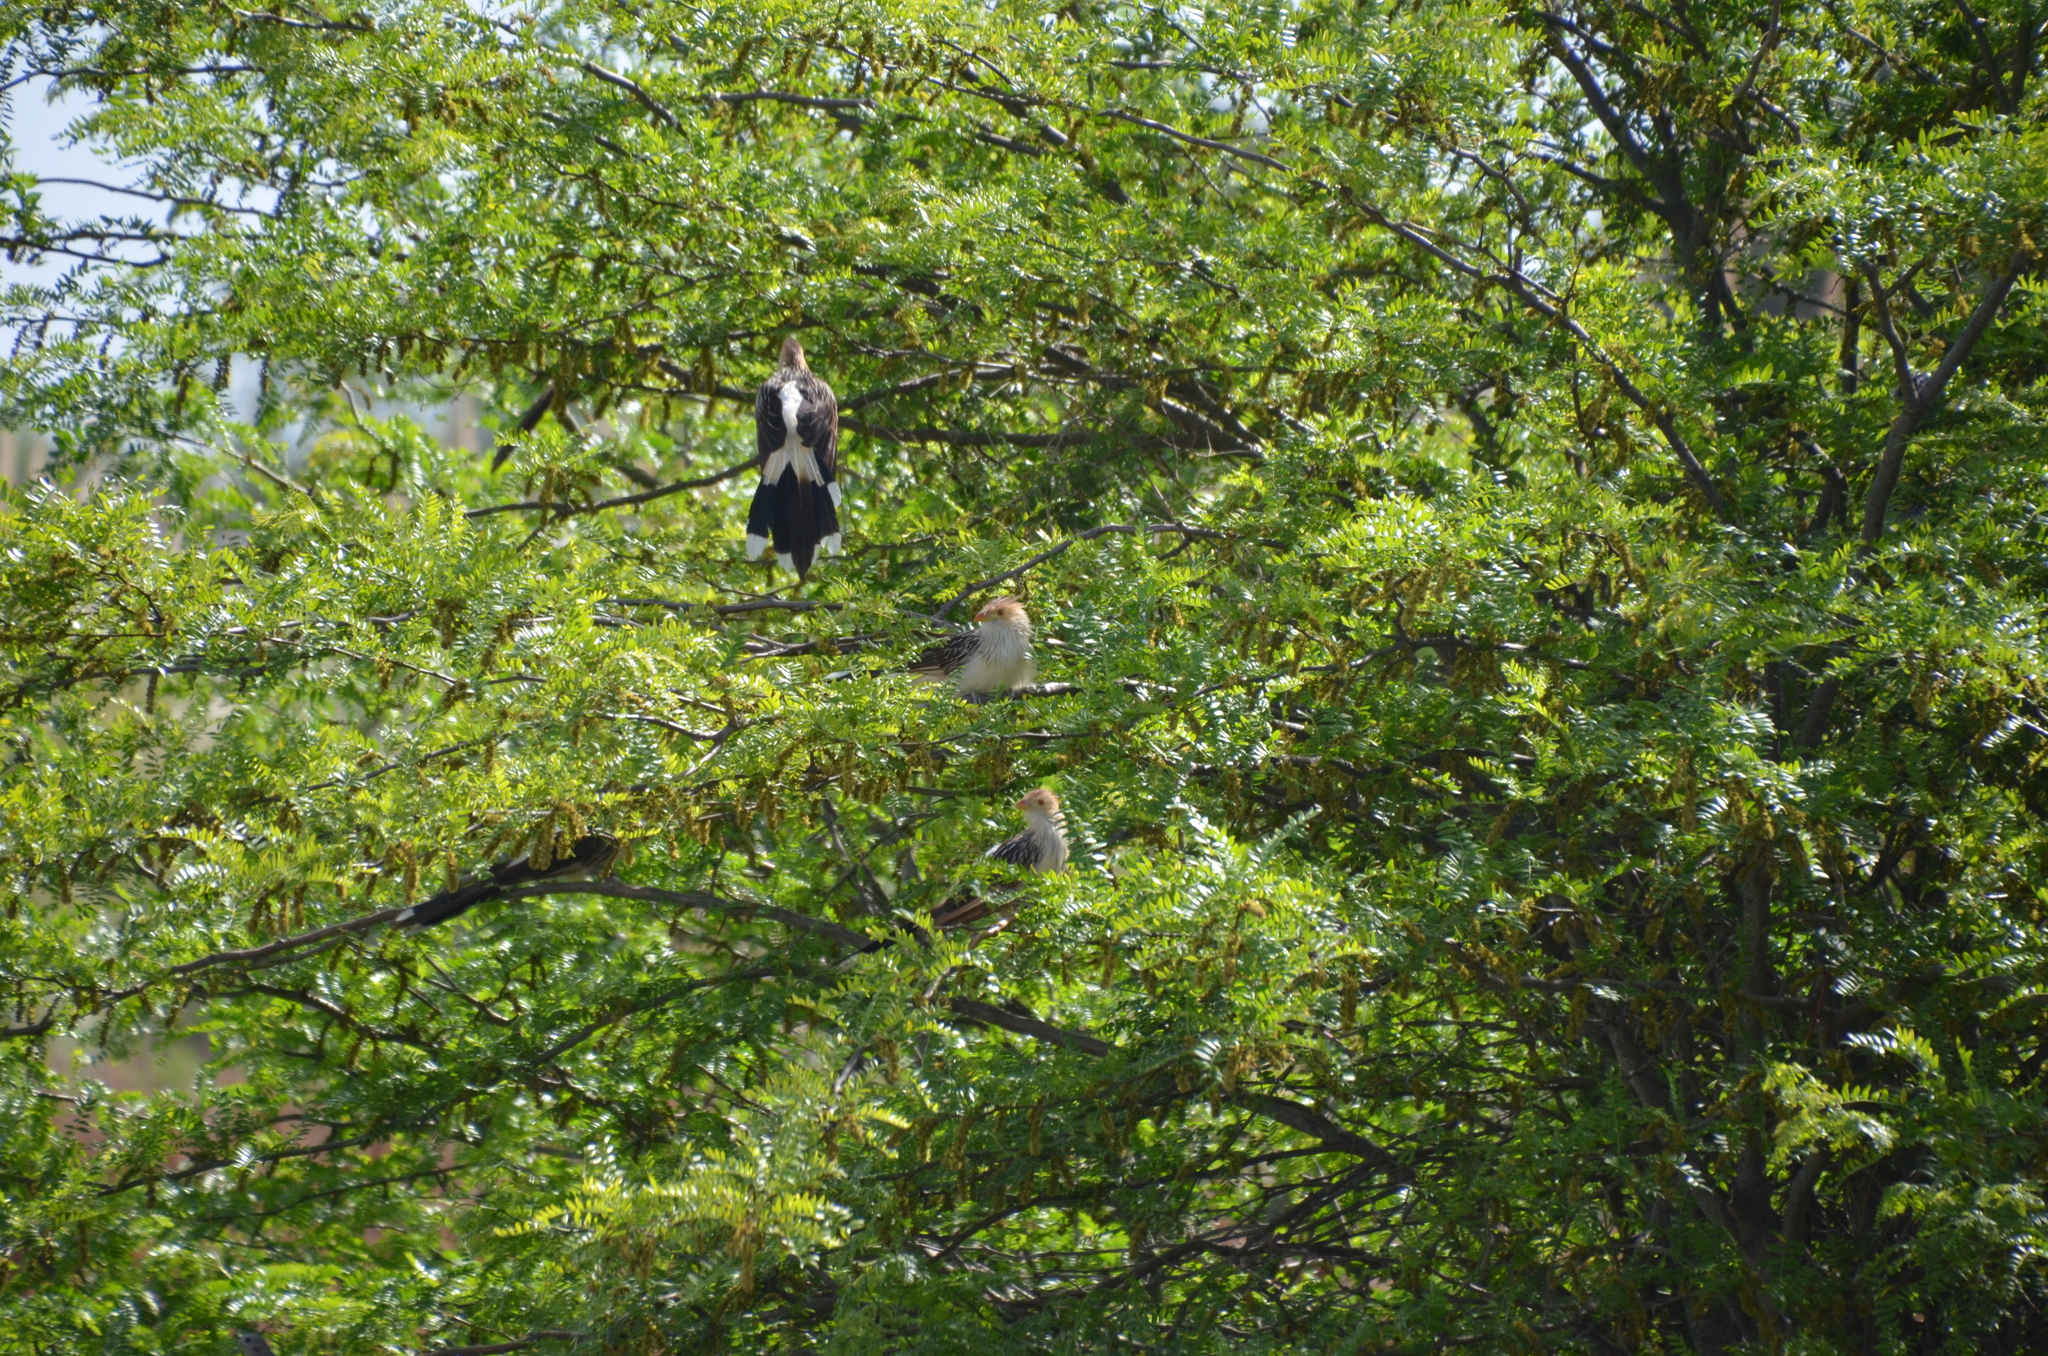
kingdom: Animalia
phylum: Chordata
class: Aves
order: Cuculiformes
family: Cuculidae
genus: Guira
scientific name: Guira guira
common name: Guira cuckoo
